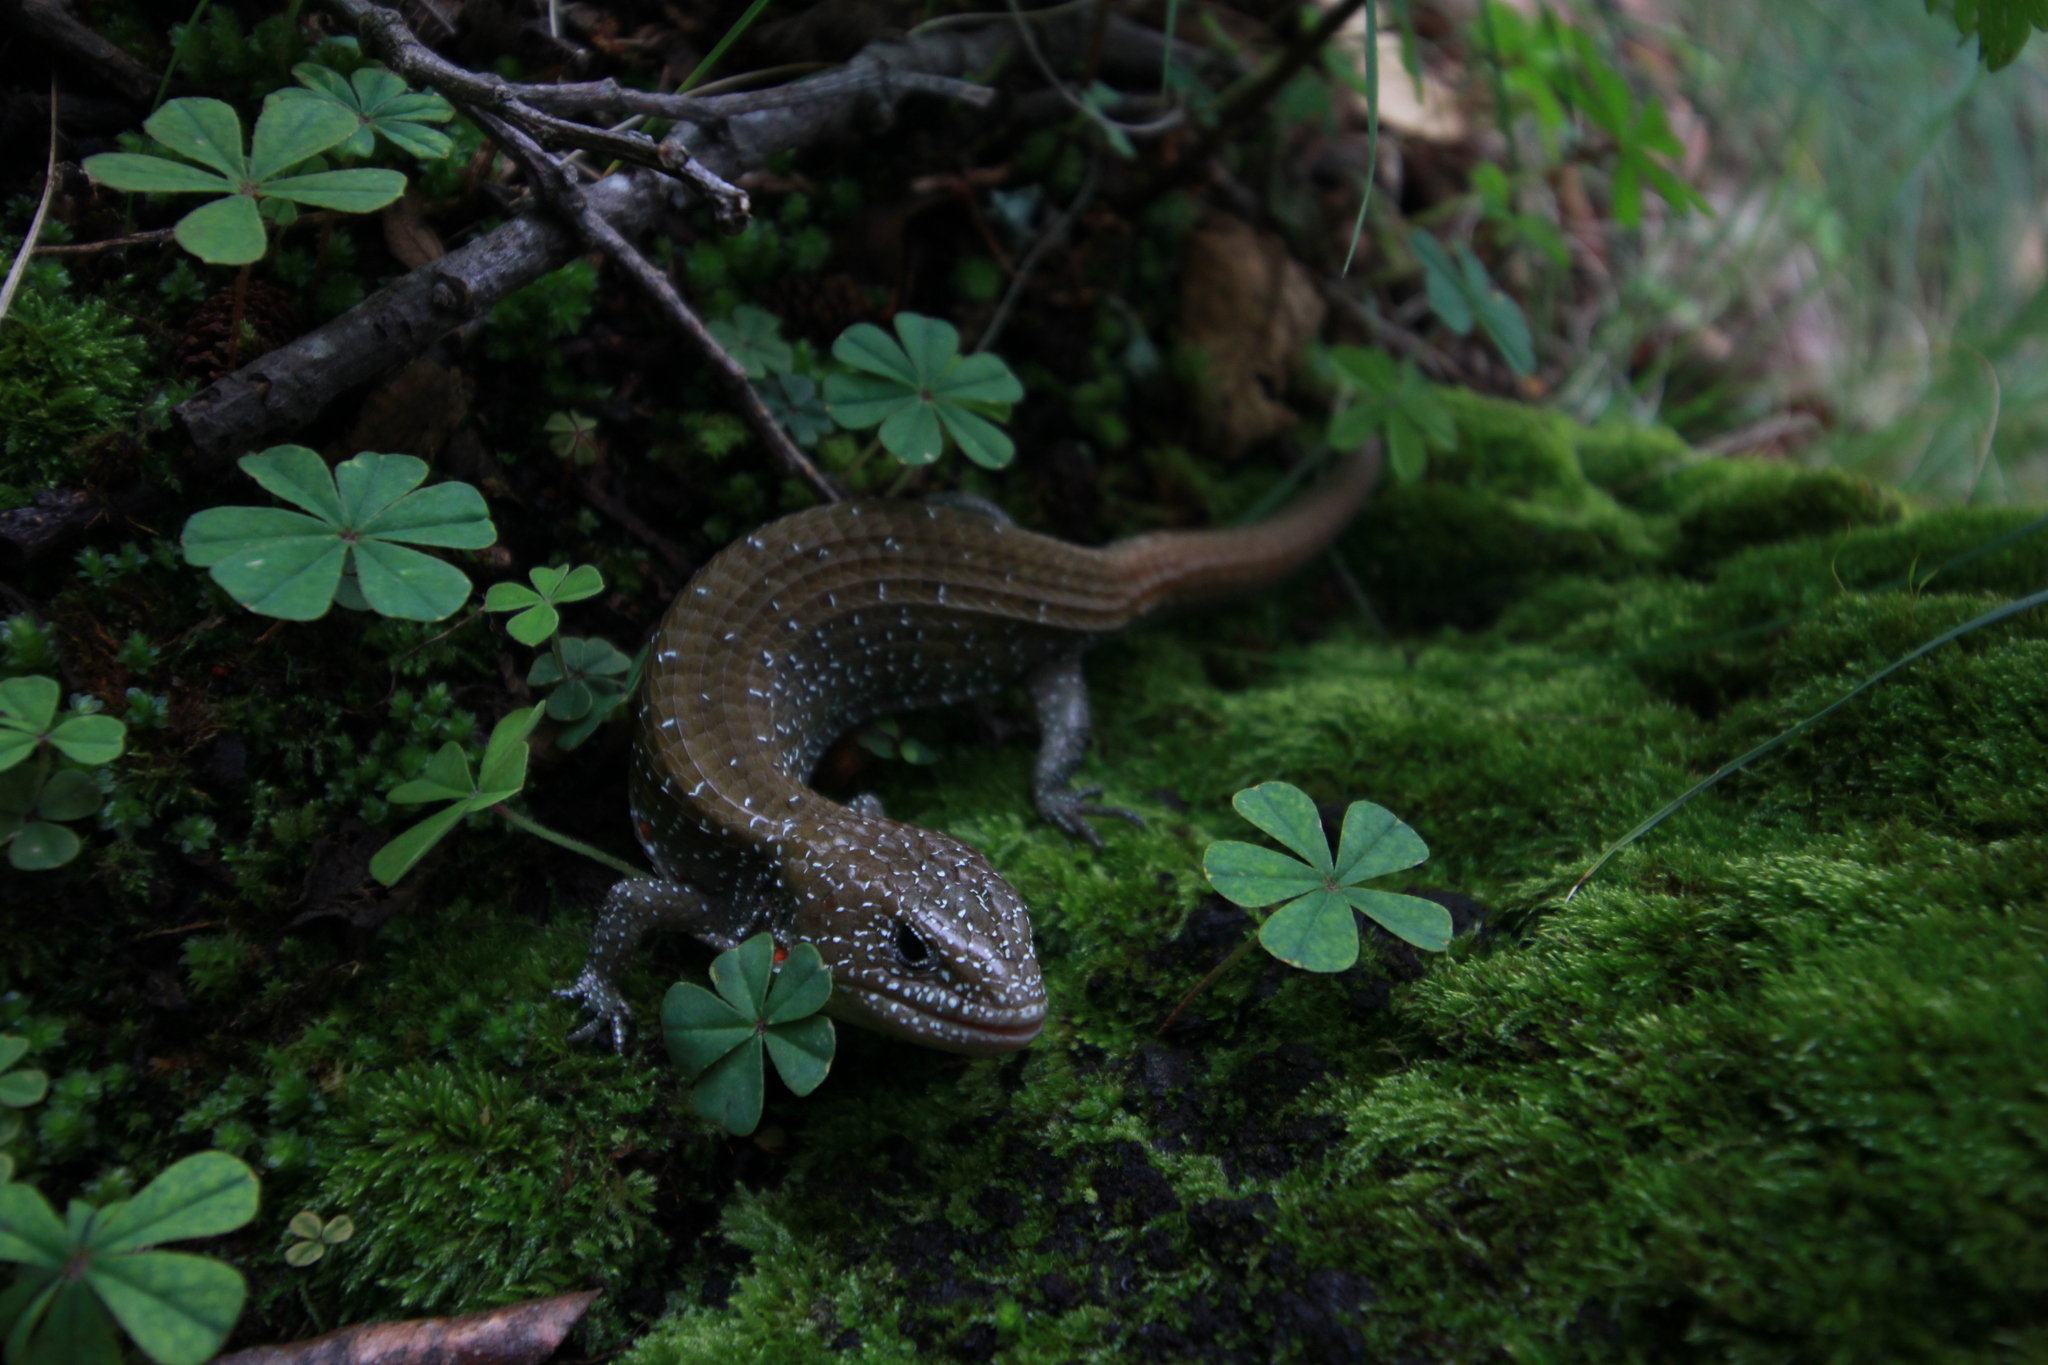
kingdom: Animalia
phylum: Chordata
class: Squamata
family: Anguidae
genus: Barisia
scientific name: Barisia imbricata
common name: Imbricate alligator lizard
